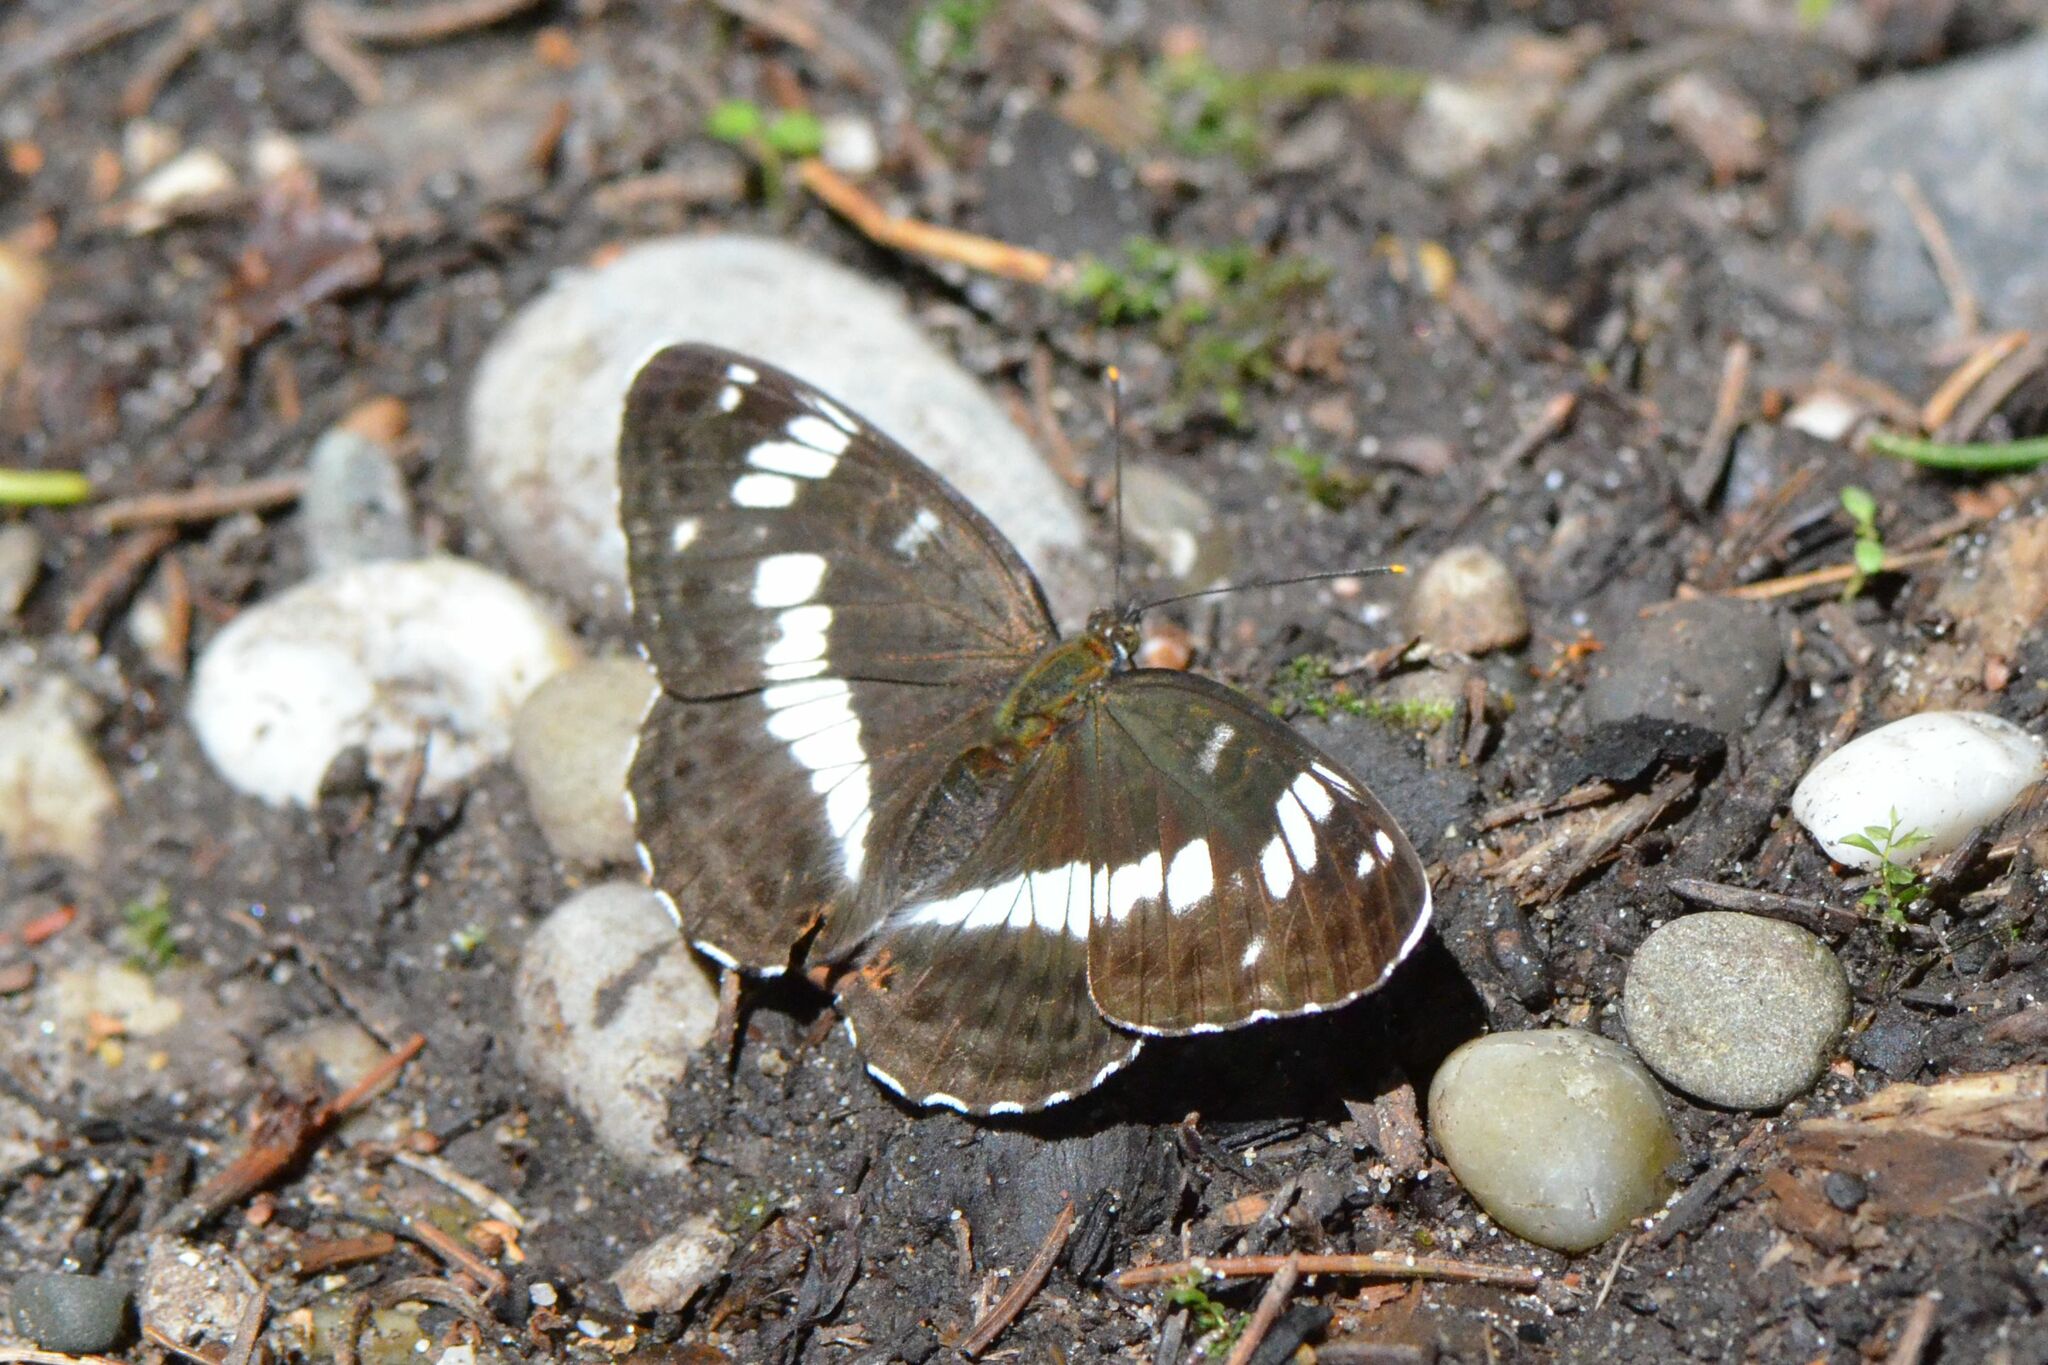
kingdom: Animalia
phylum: Arthropoda
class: Insecta
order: Lepidoptera
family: Nymphalidae
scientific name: Nymphalidae
